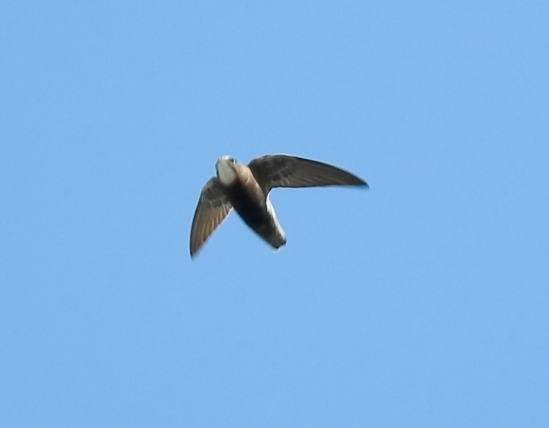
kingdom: Animalia
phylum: Chordata
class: Aves
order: Apodiformes
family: Apodidae
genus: Apus
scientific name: Apus affinis
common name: Little swift
